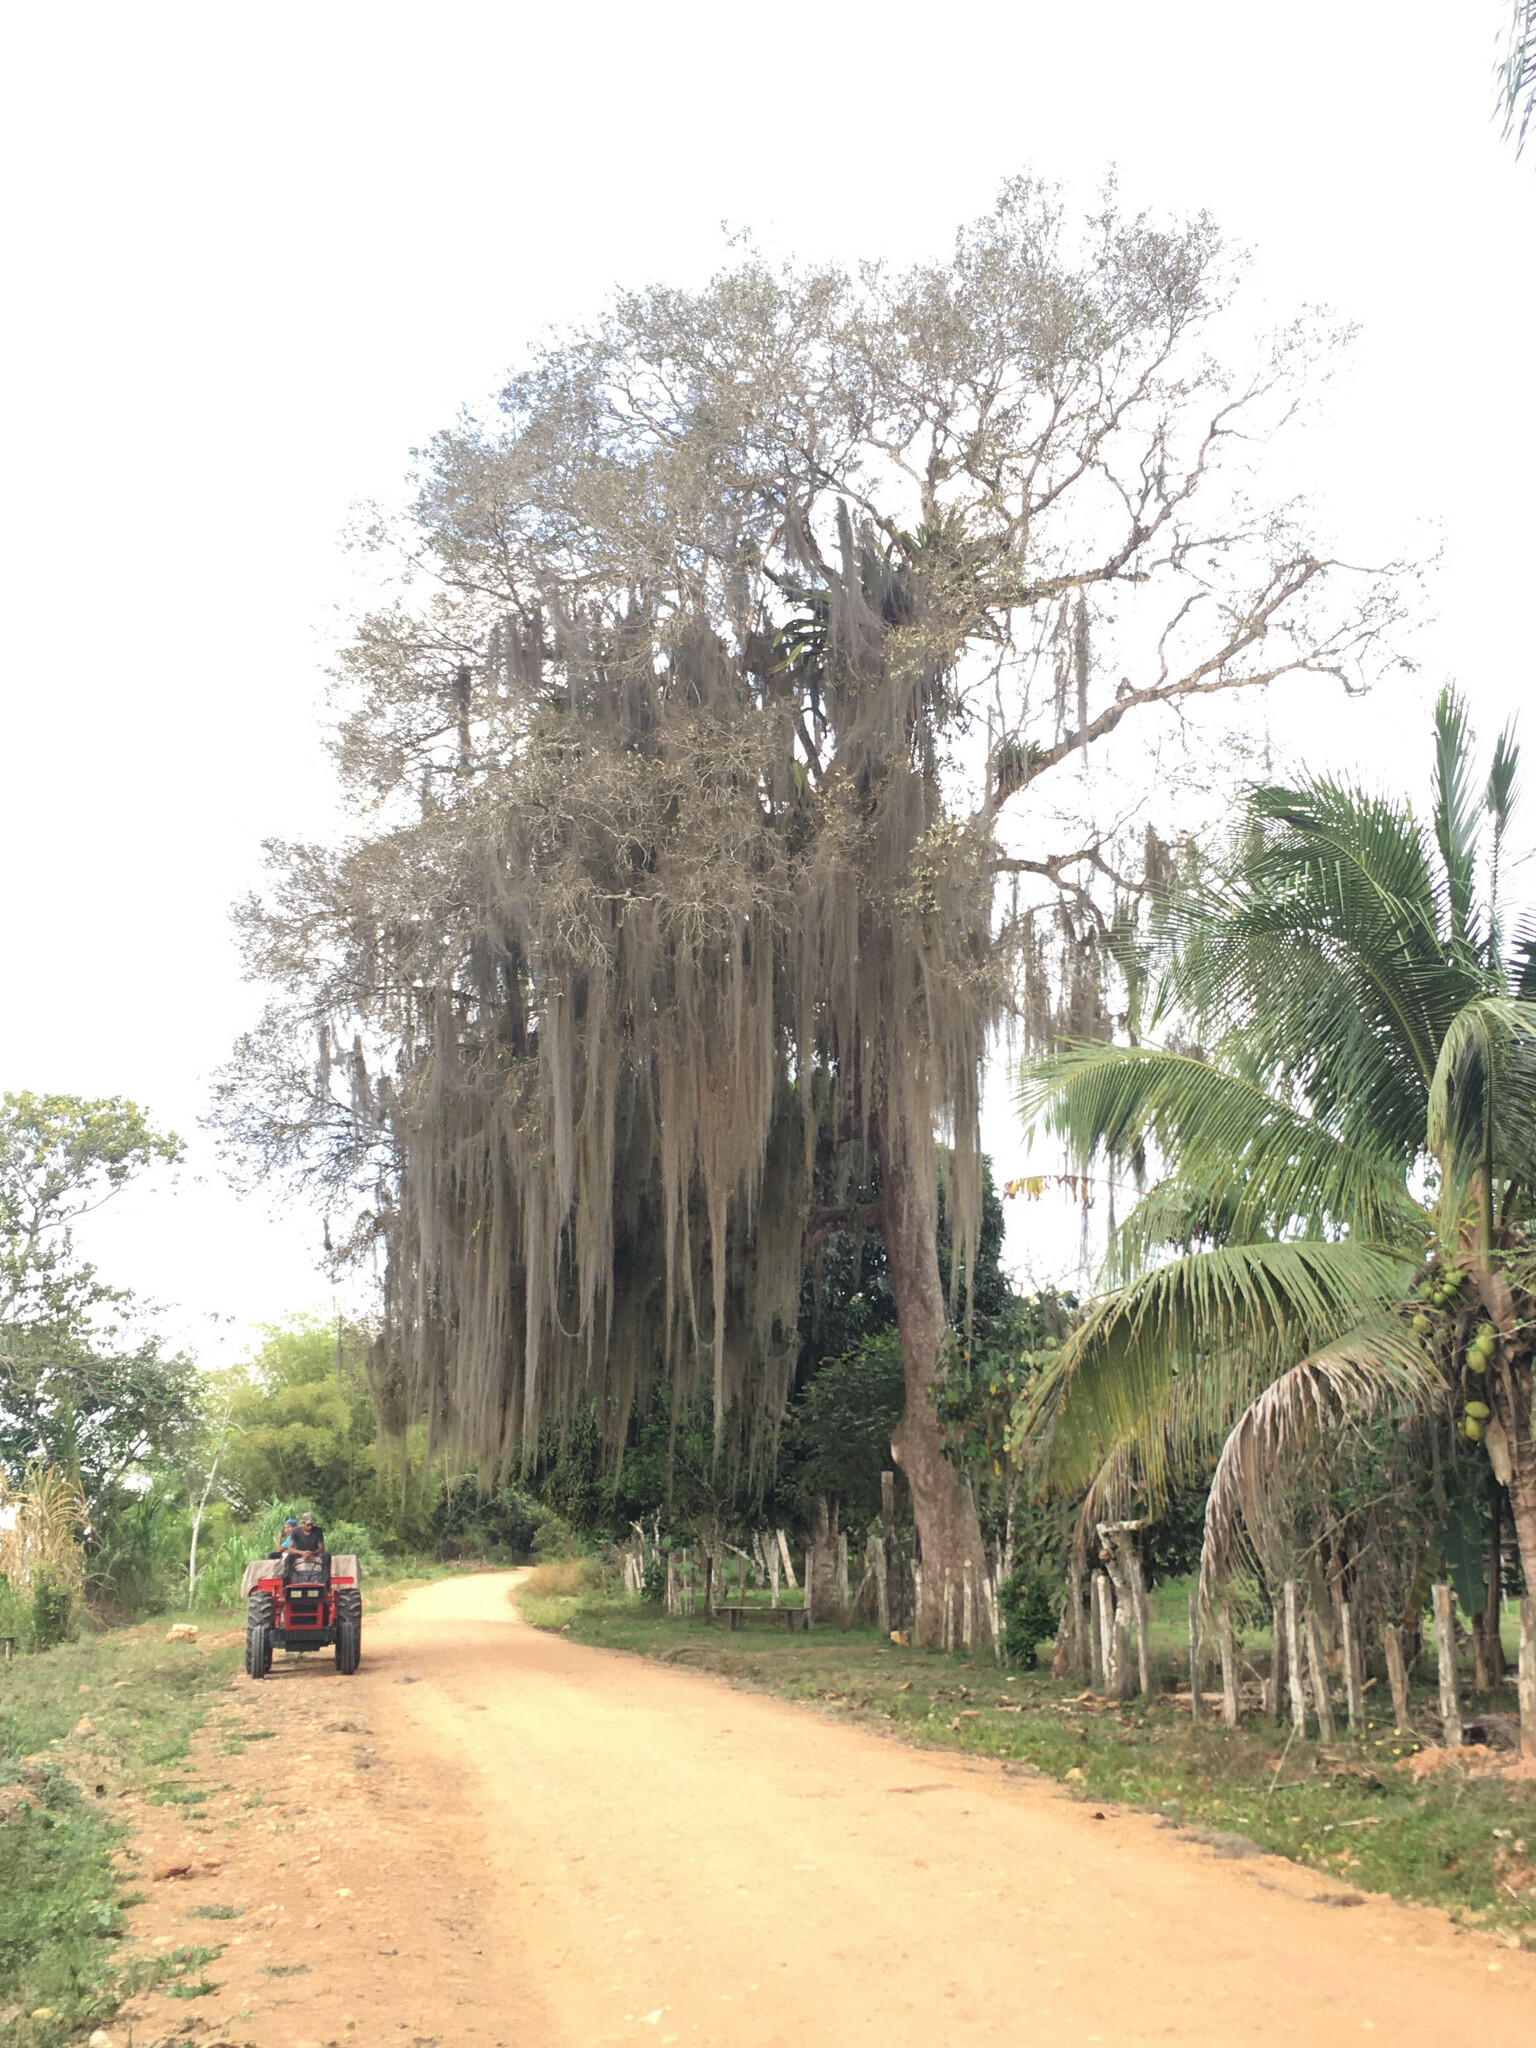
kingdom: Plantae
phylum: Tracheophyta
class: Liliopsida
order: Poales
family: Bromeliaceae
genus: Tillandsia
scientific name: Tillandsia usneoides
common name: Spanish moss
